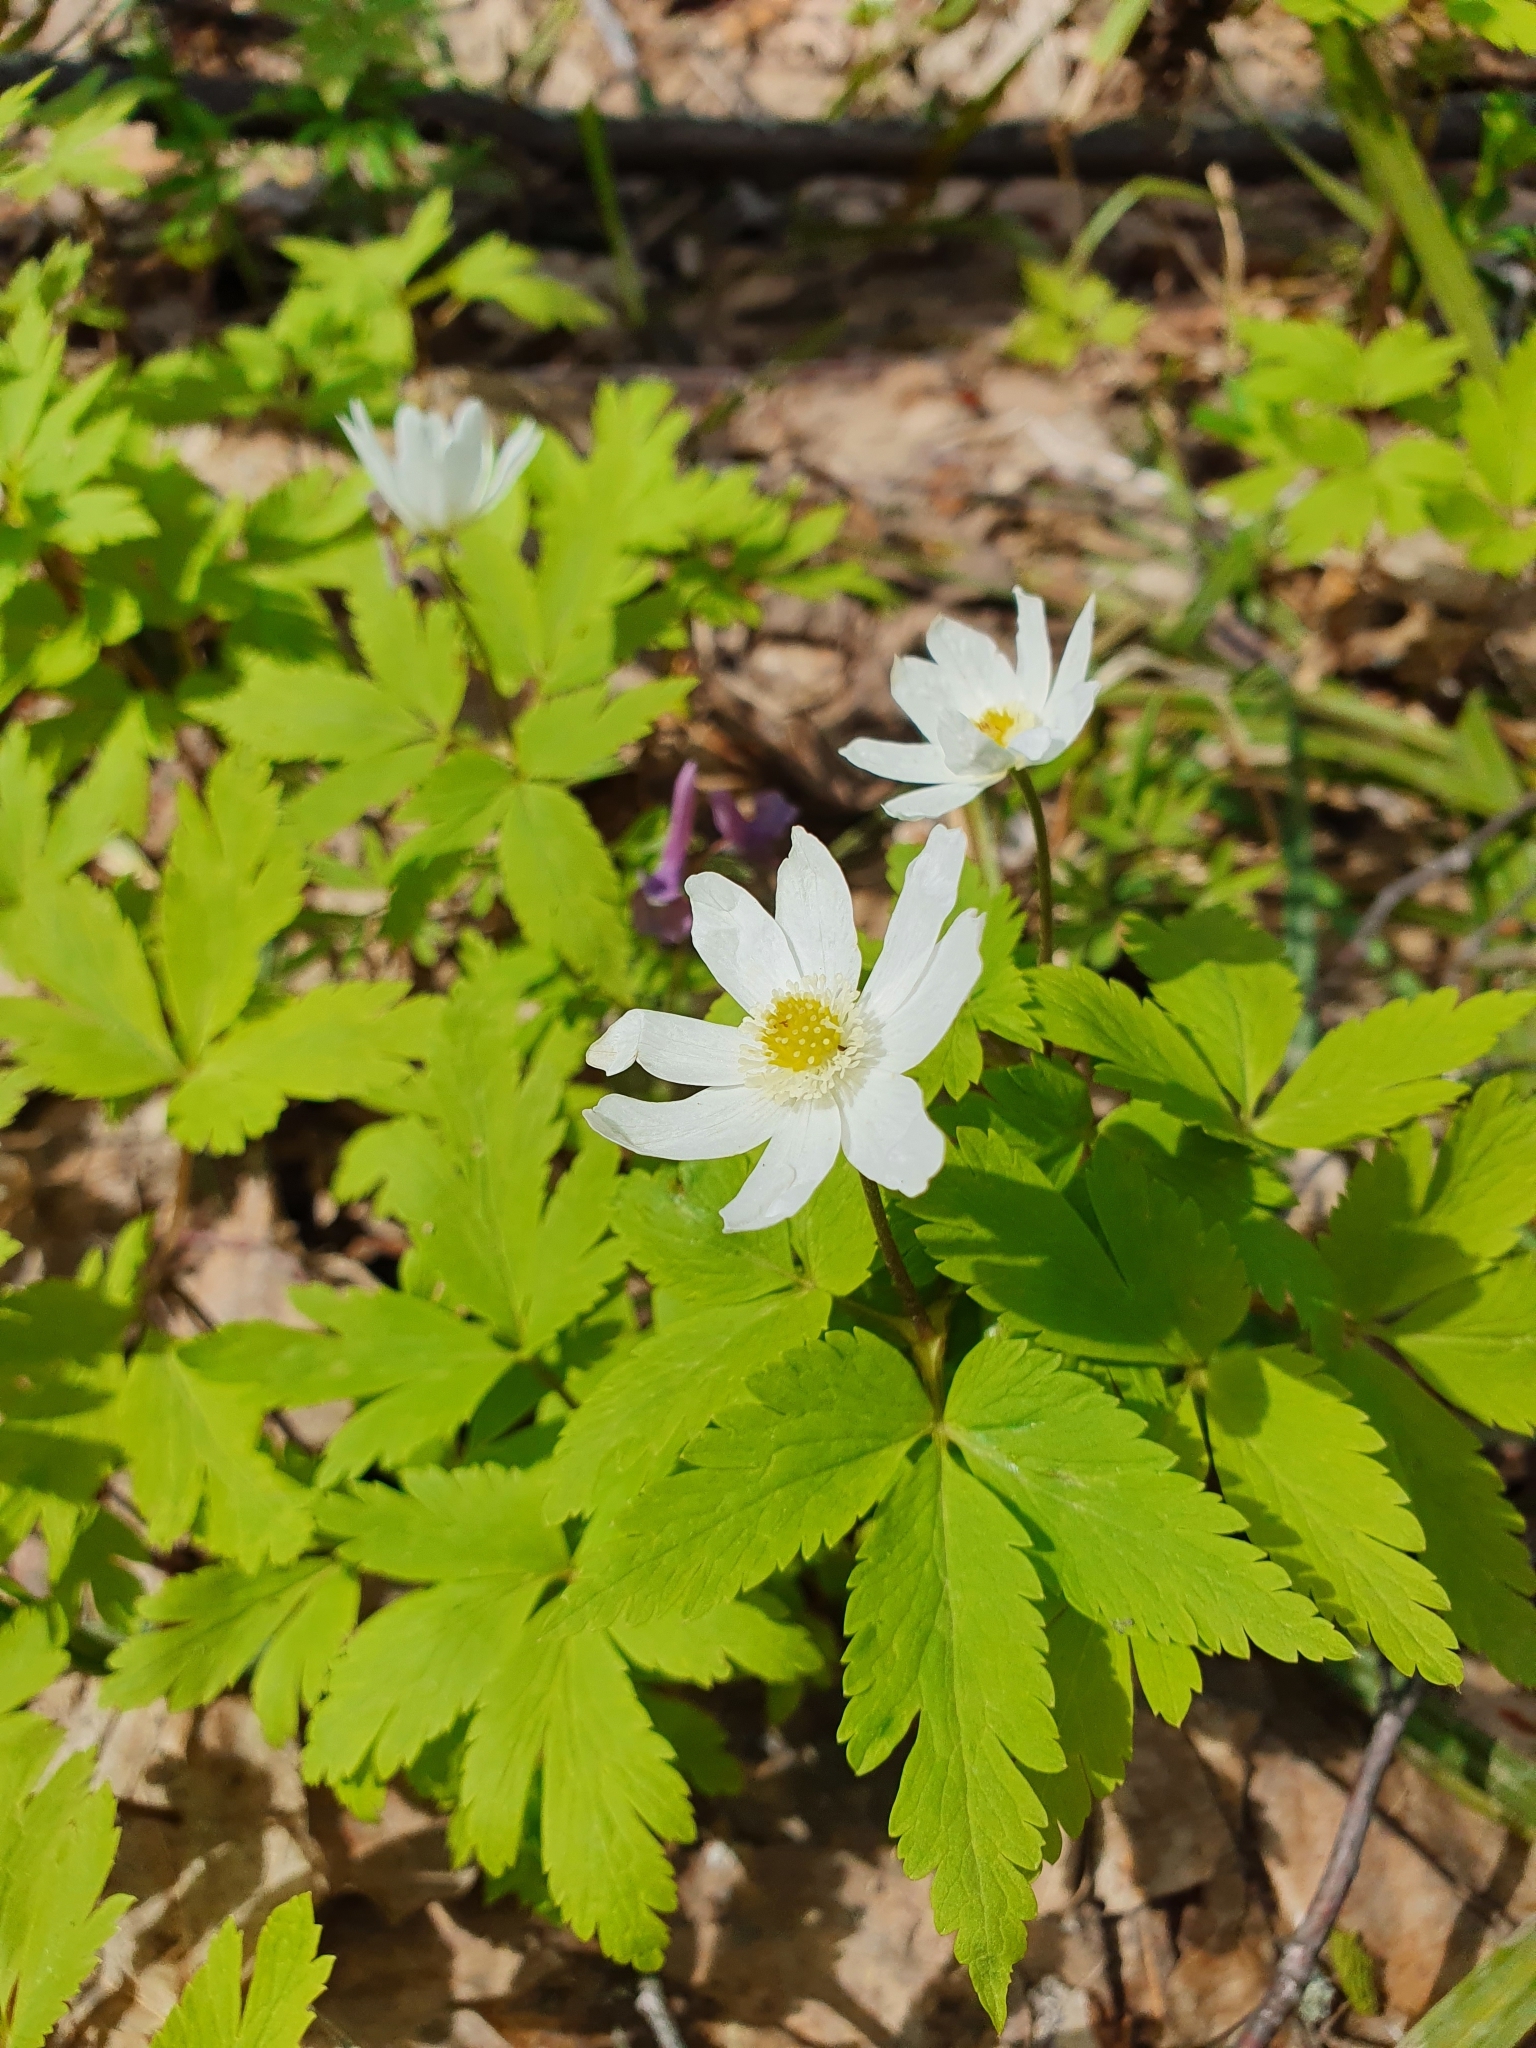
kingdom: Plantae
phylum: Tracheophyta
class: Magnoliopsida
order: Ranunculales
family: Ranunculaceae
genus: Anemone
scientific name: Anemone altaica
